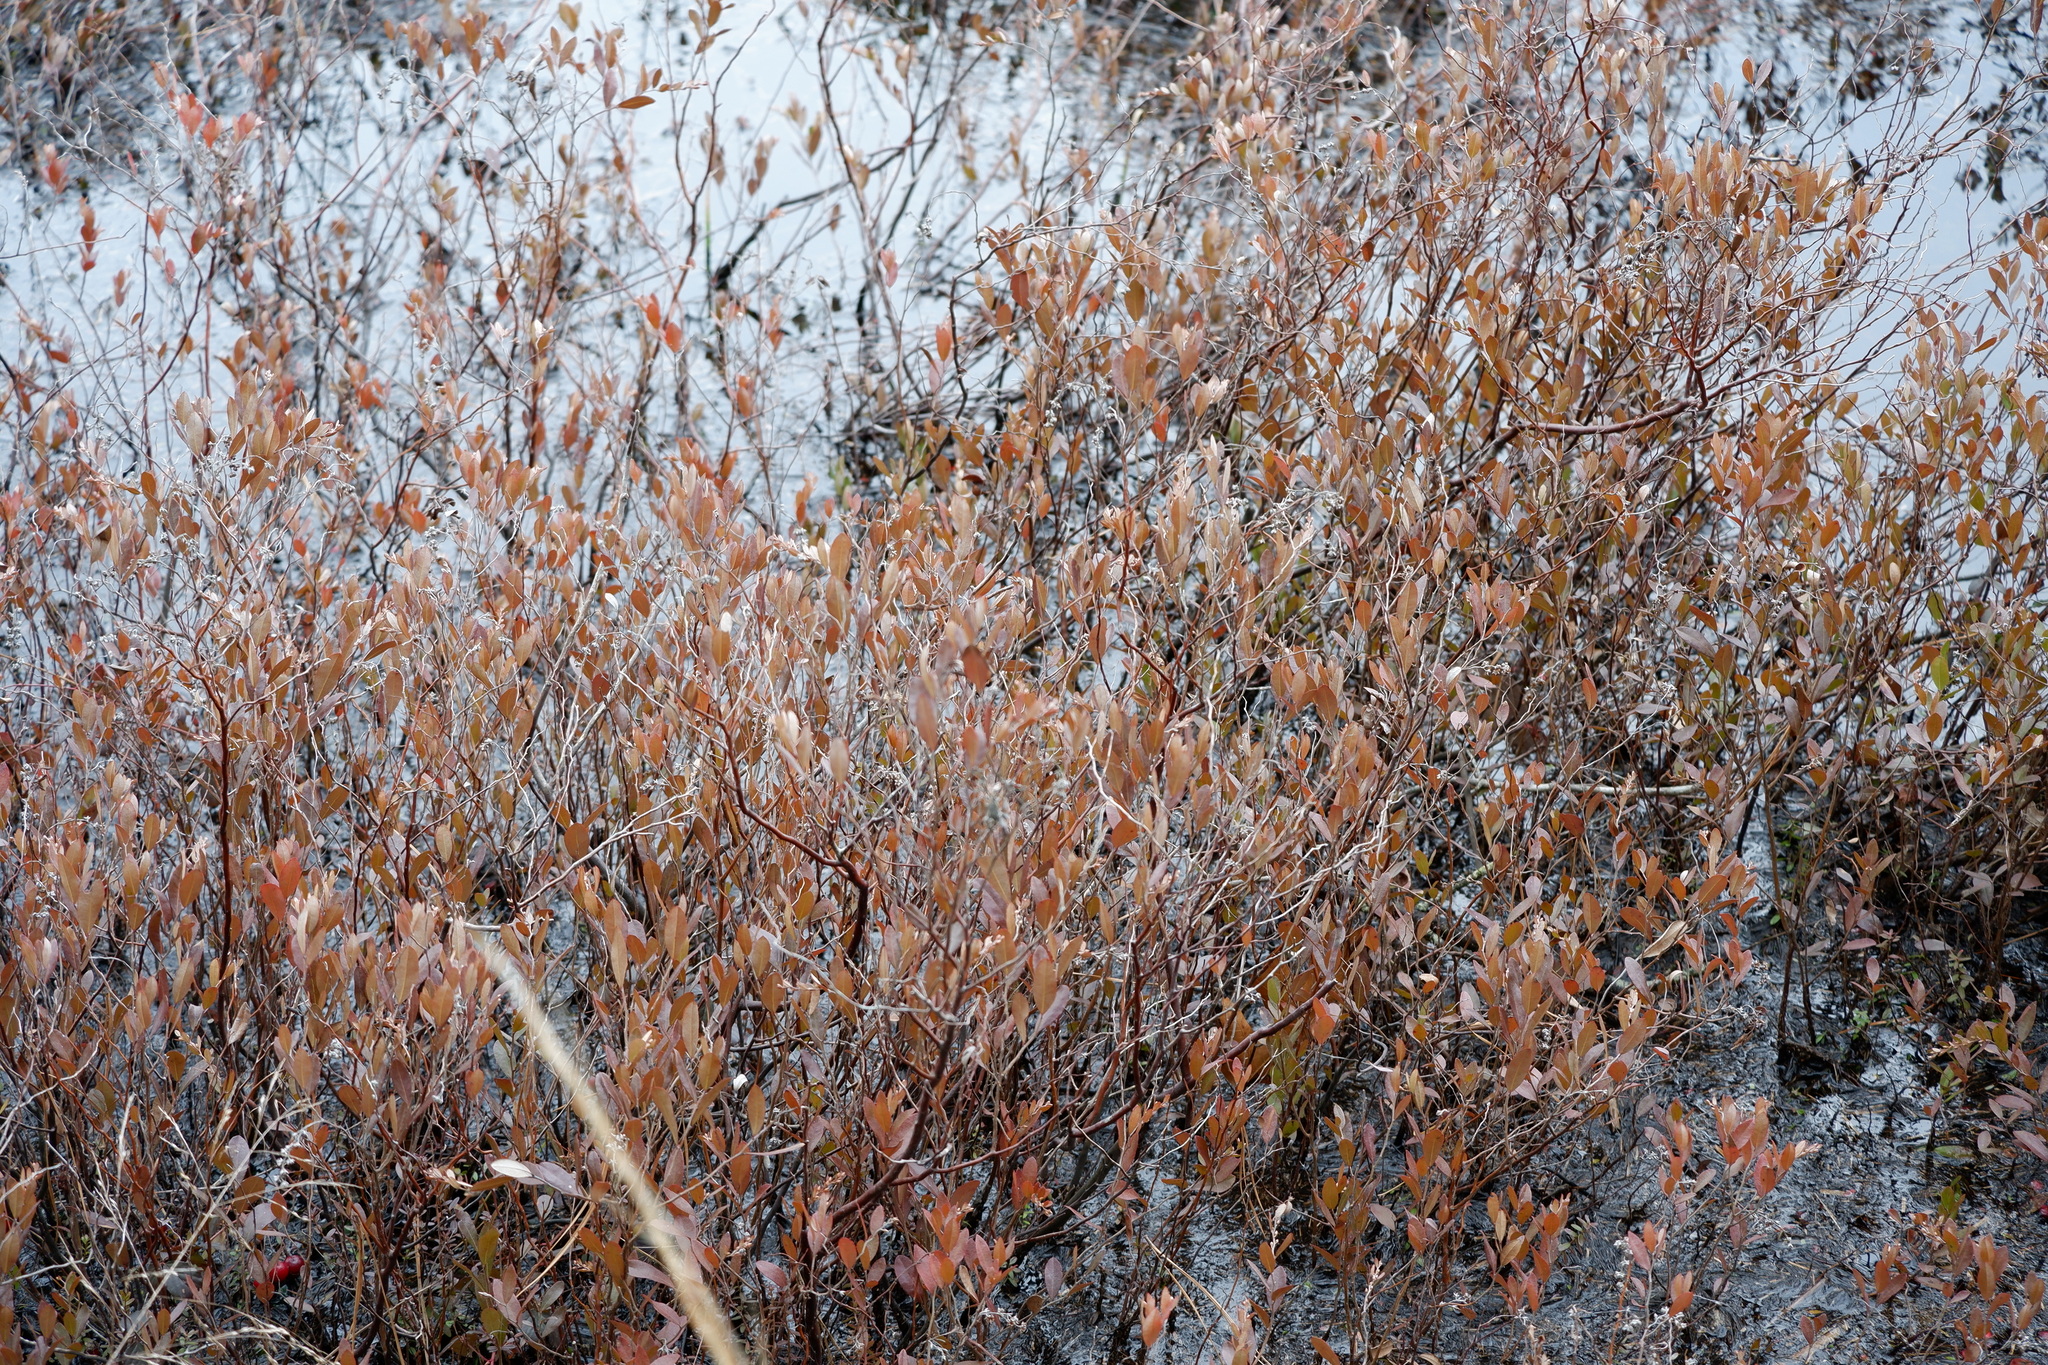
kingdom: Plantae
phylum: Tracheophyta
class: Magnoliopsida
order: Ericales
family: Ericaceae
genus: Chamaedaphne
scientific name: Chamaedaphne calyculata
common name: Leatherleaf
